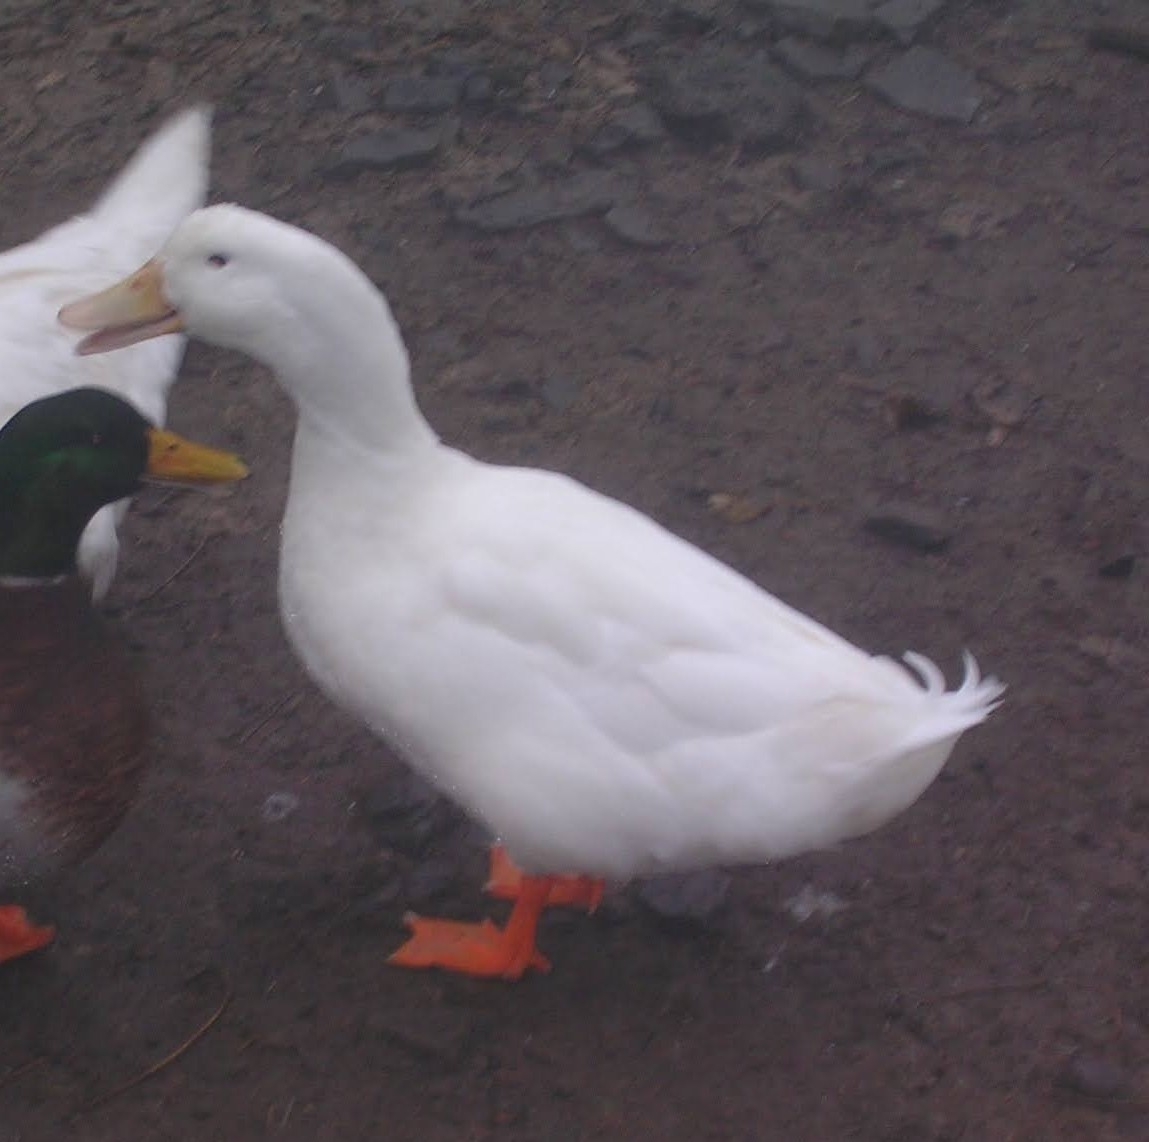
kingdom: Animalia
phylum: Chordata
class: Aves
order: Anseriformes
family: Anatidae
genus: Anas
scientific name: Anas platyrhynchos
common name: Mallard
